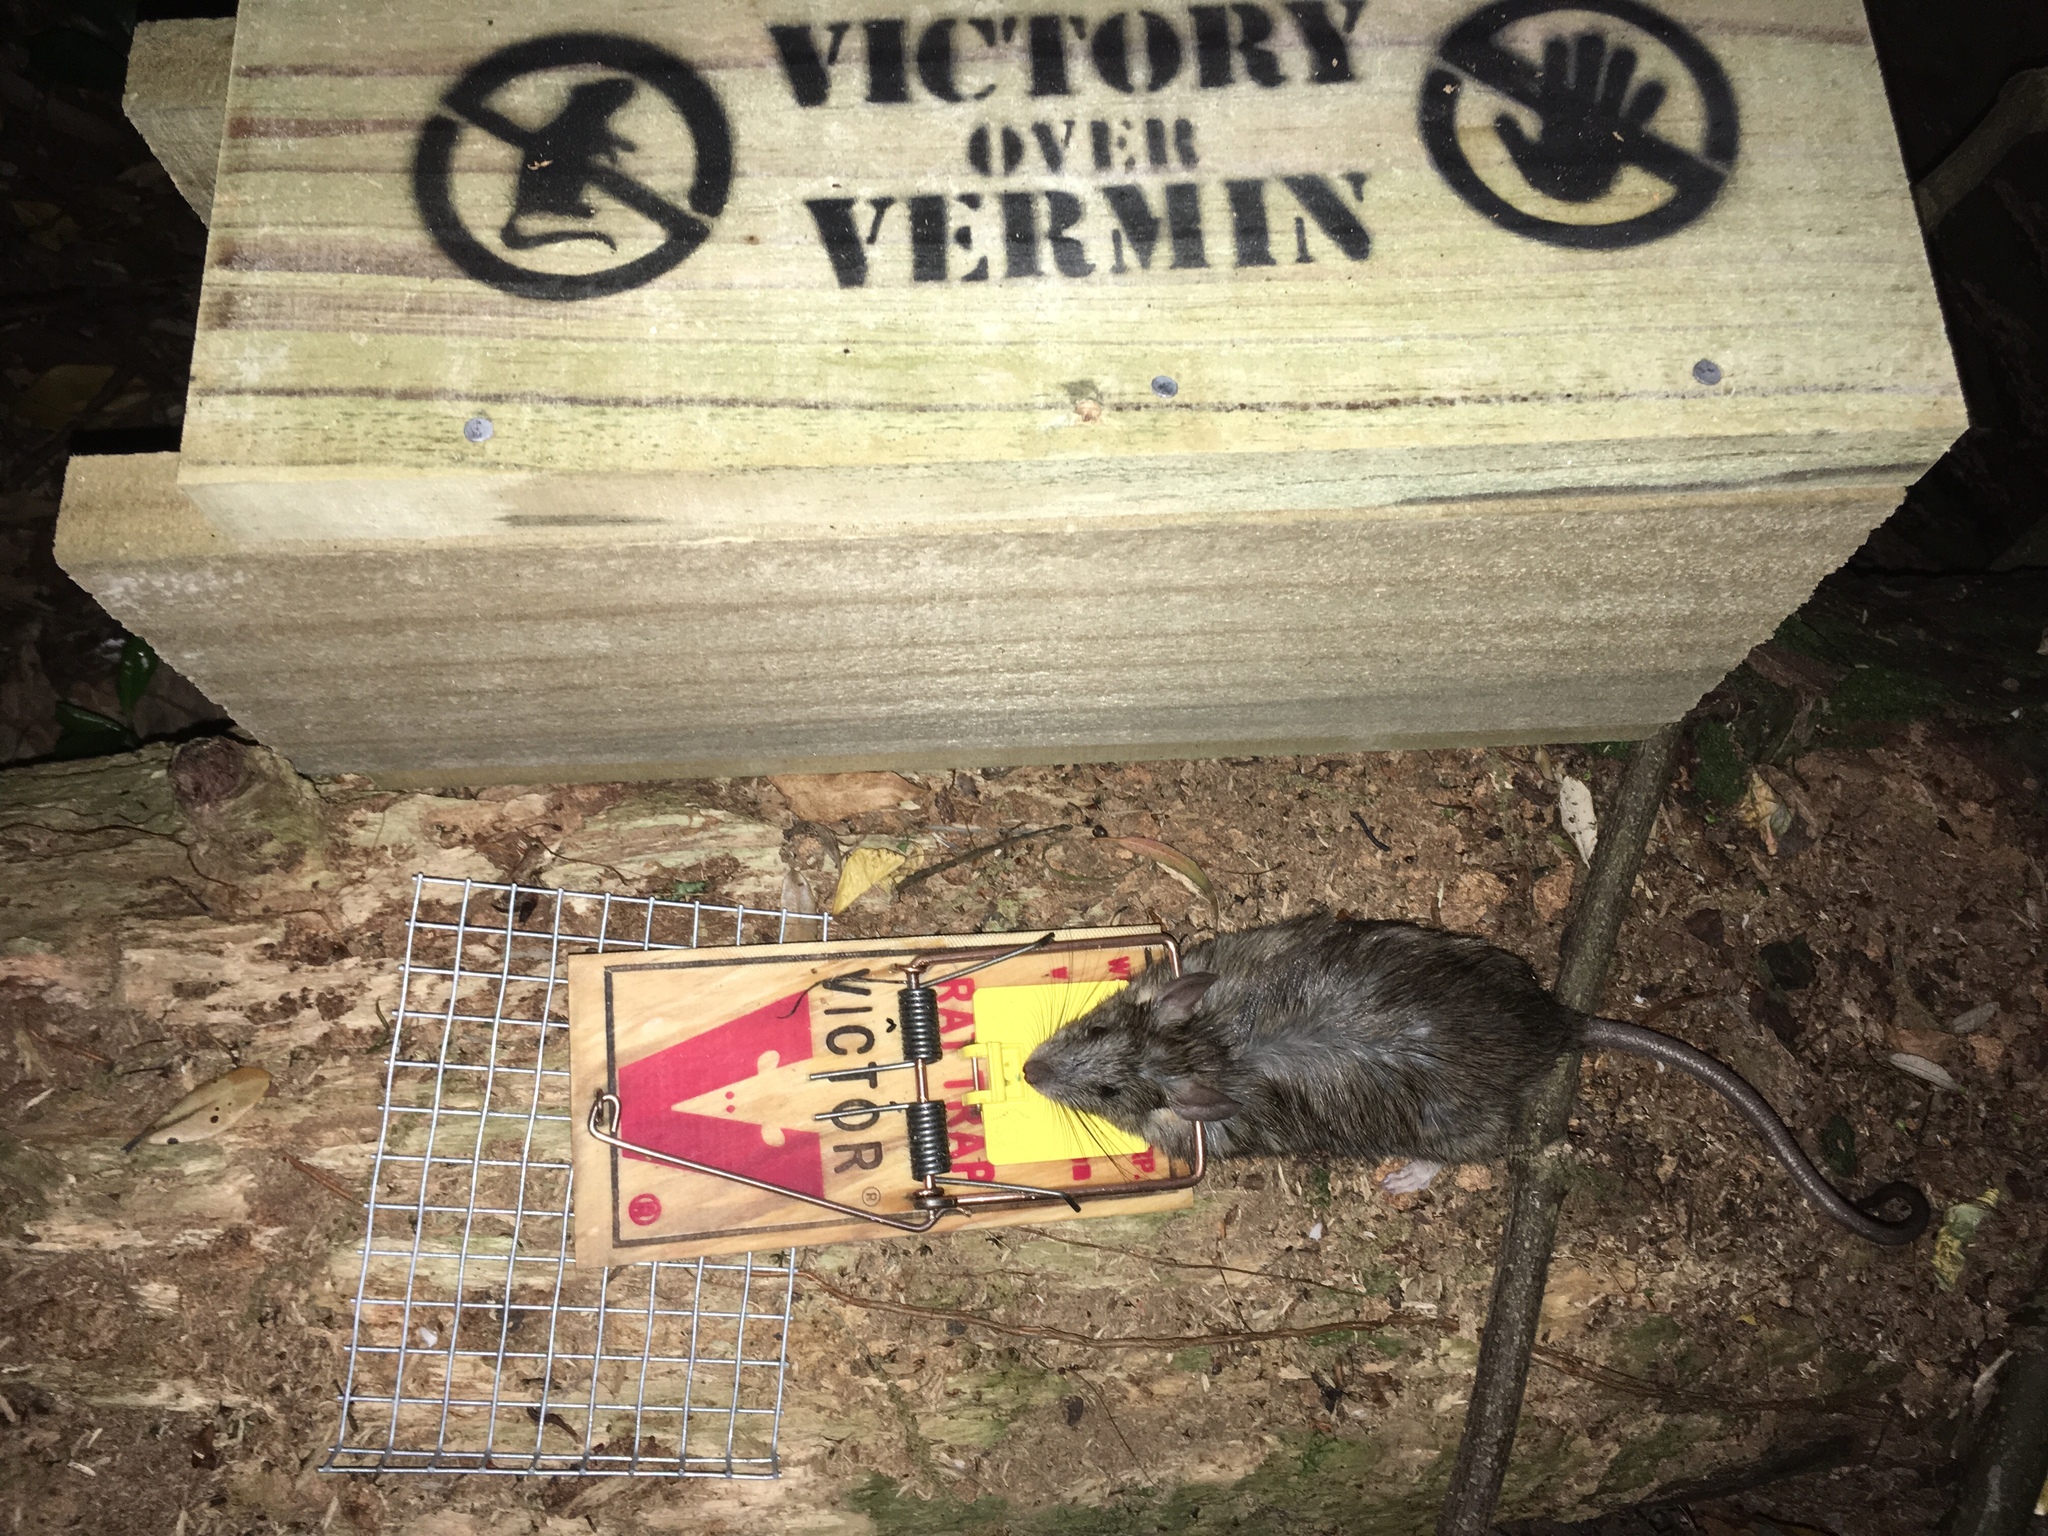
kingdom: Animalia
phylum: Chordata
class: Mammalia
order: Rodentia
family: Muridae
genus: Rattus
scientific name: Rattus rattus
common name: Black rat
